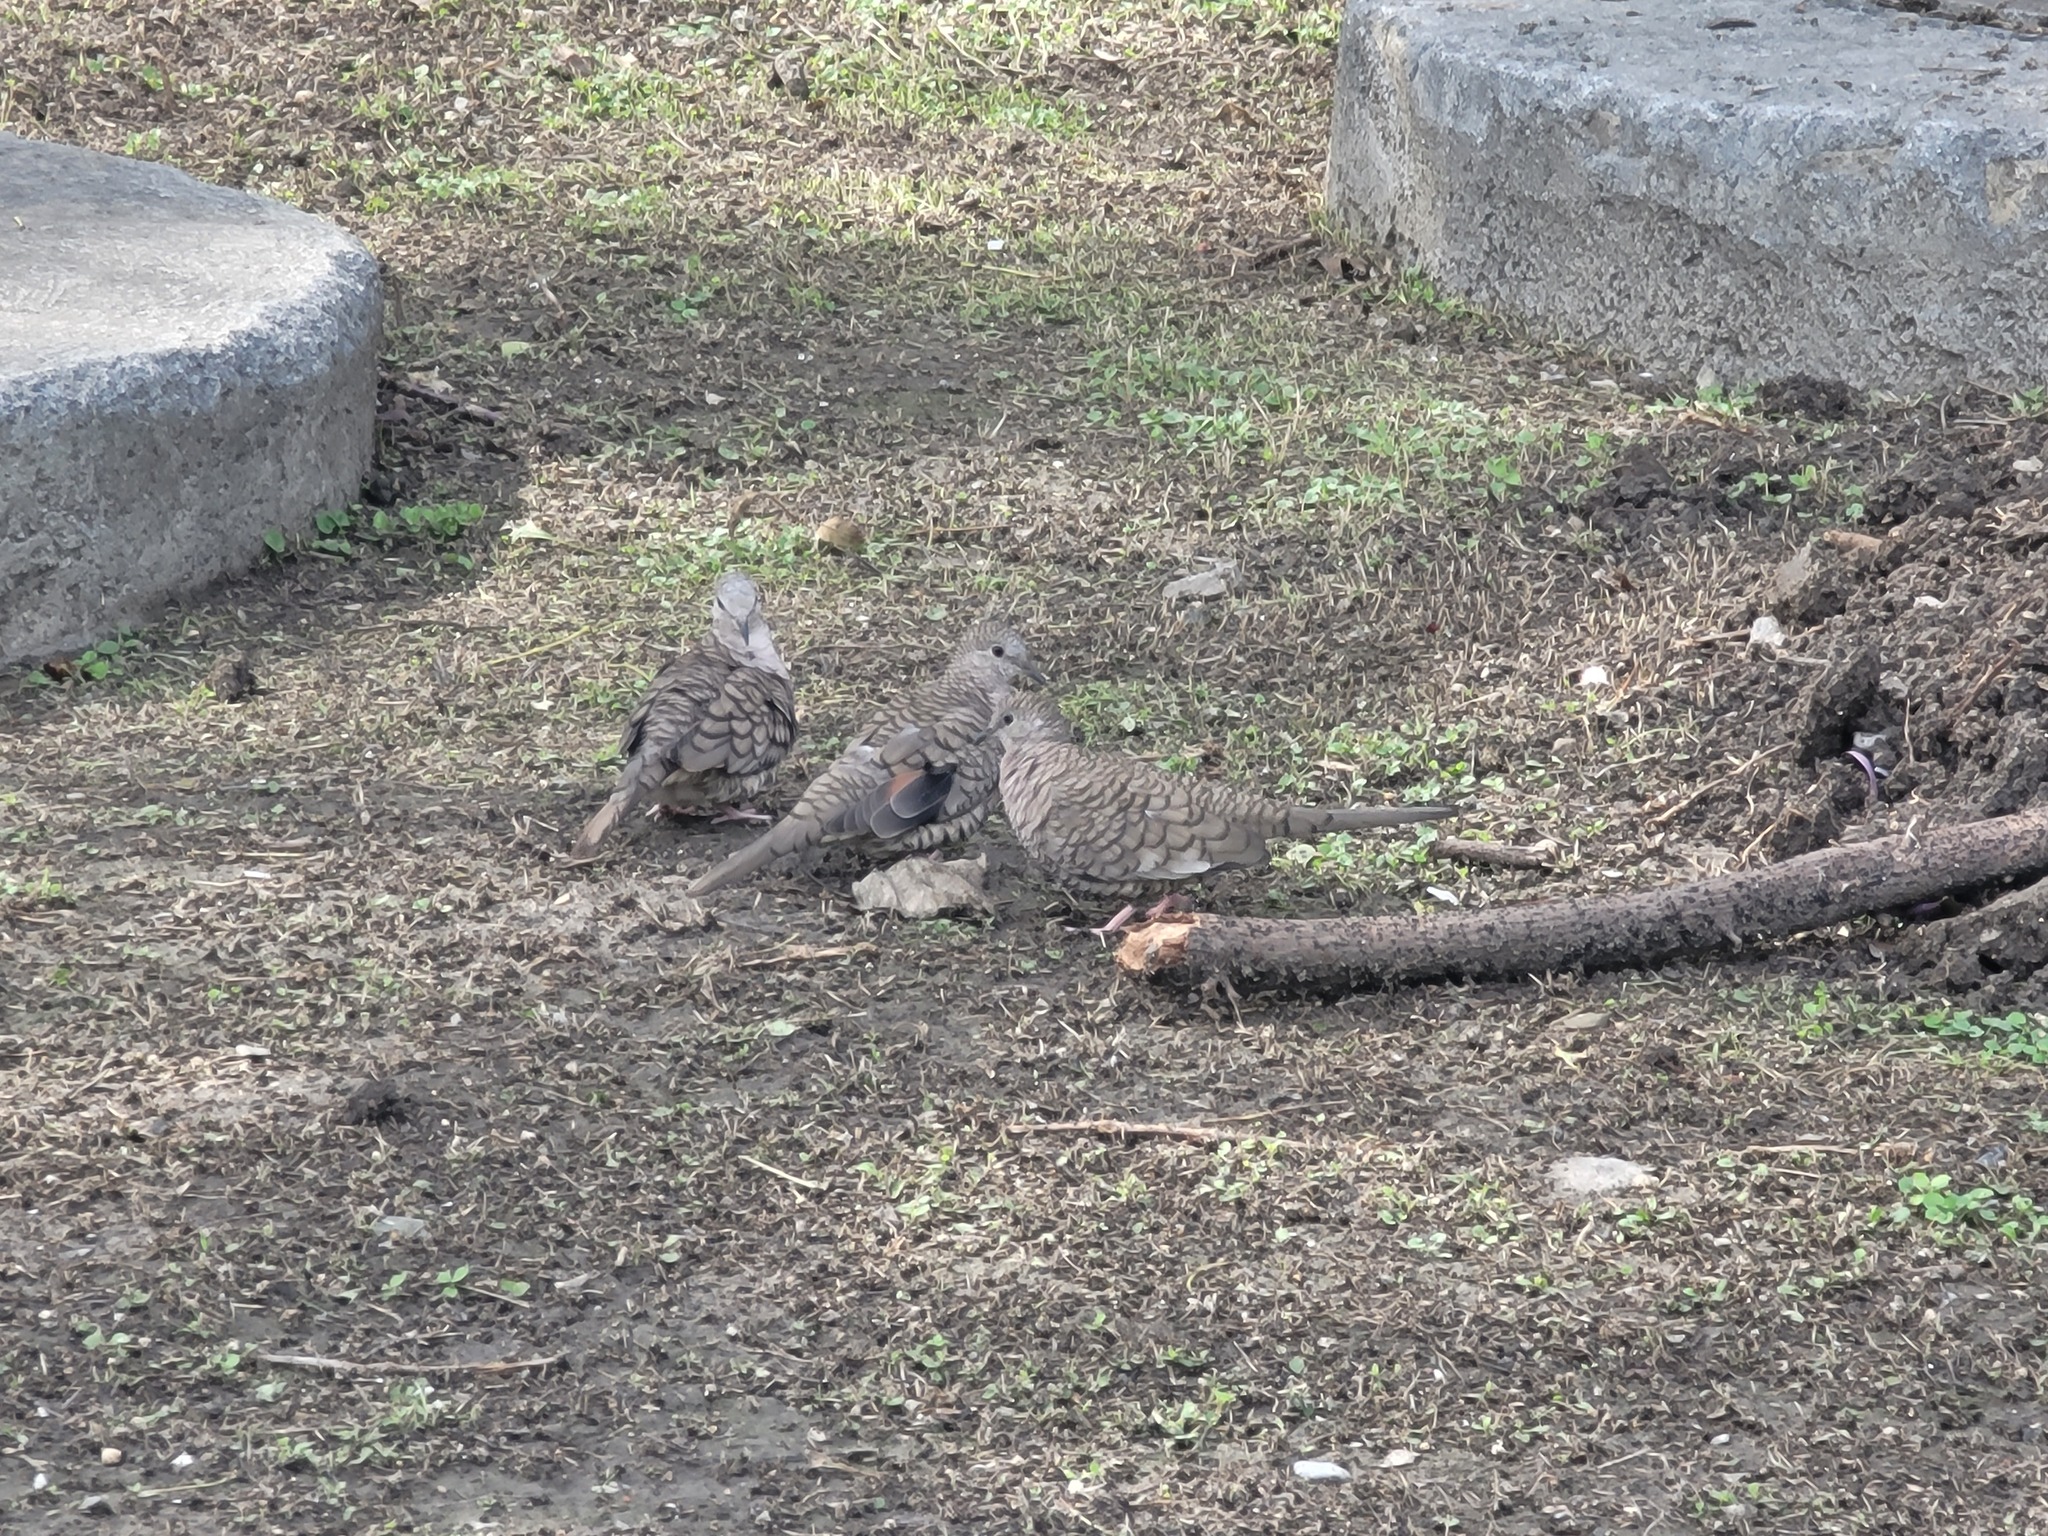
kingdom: Animalia
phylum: Chordata
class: Aves
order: Columbiformes
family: Columbidae
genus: Columbina
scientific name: Columbina inca
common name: Inca dove
